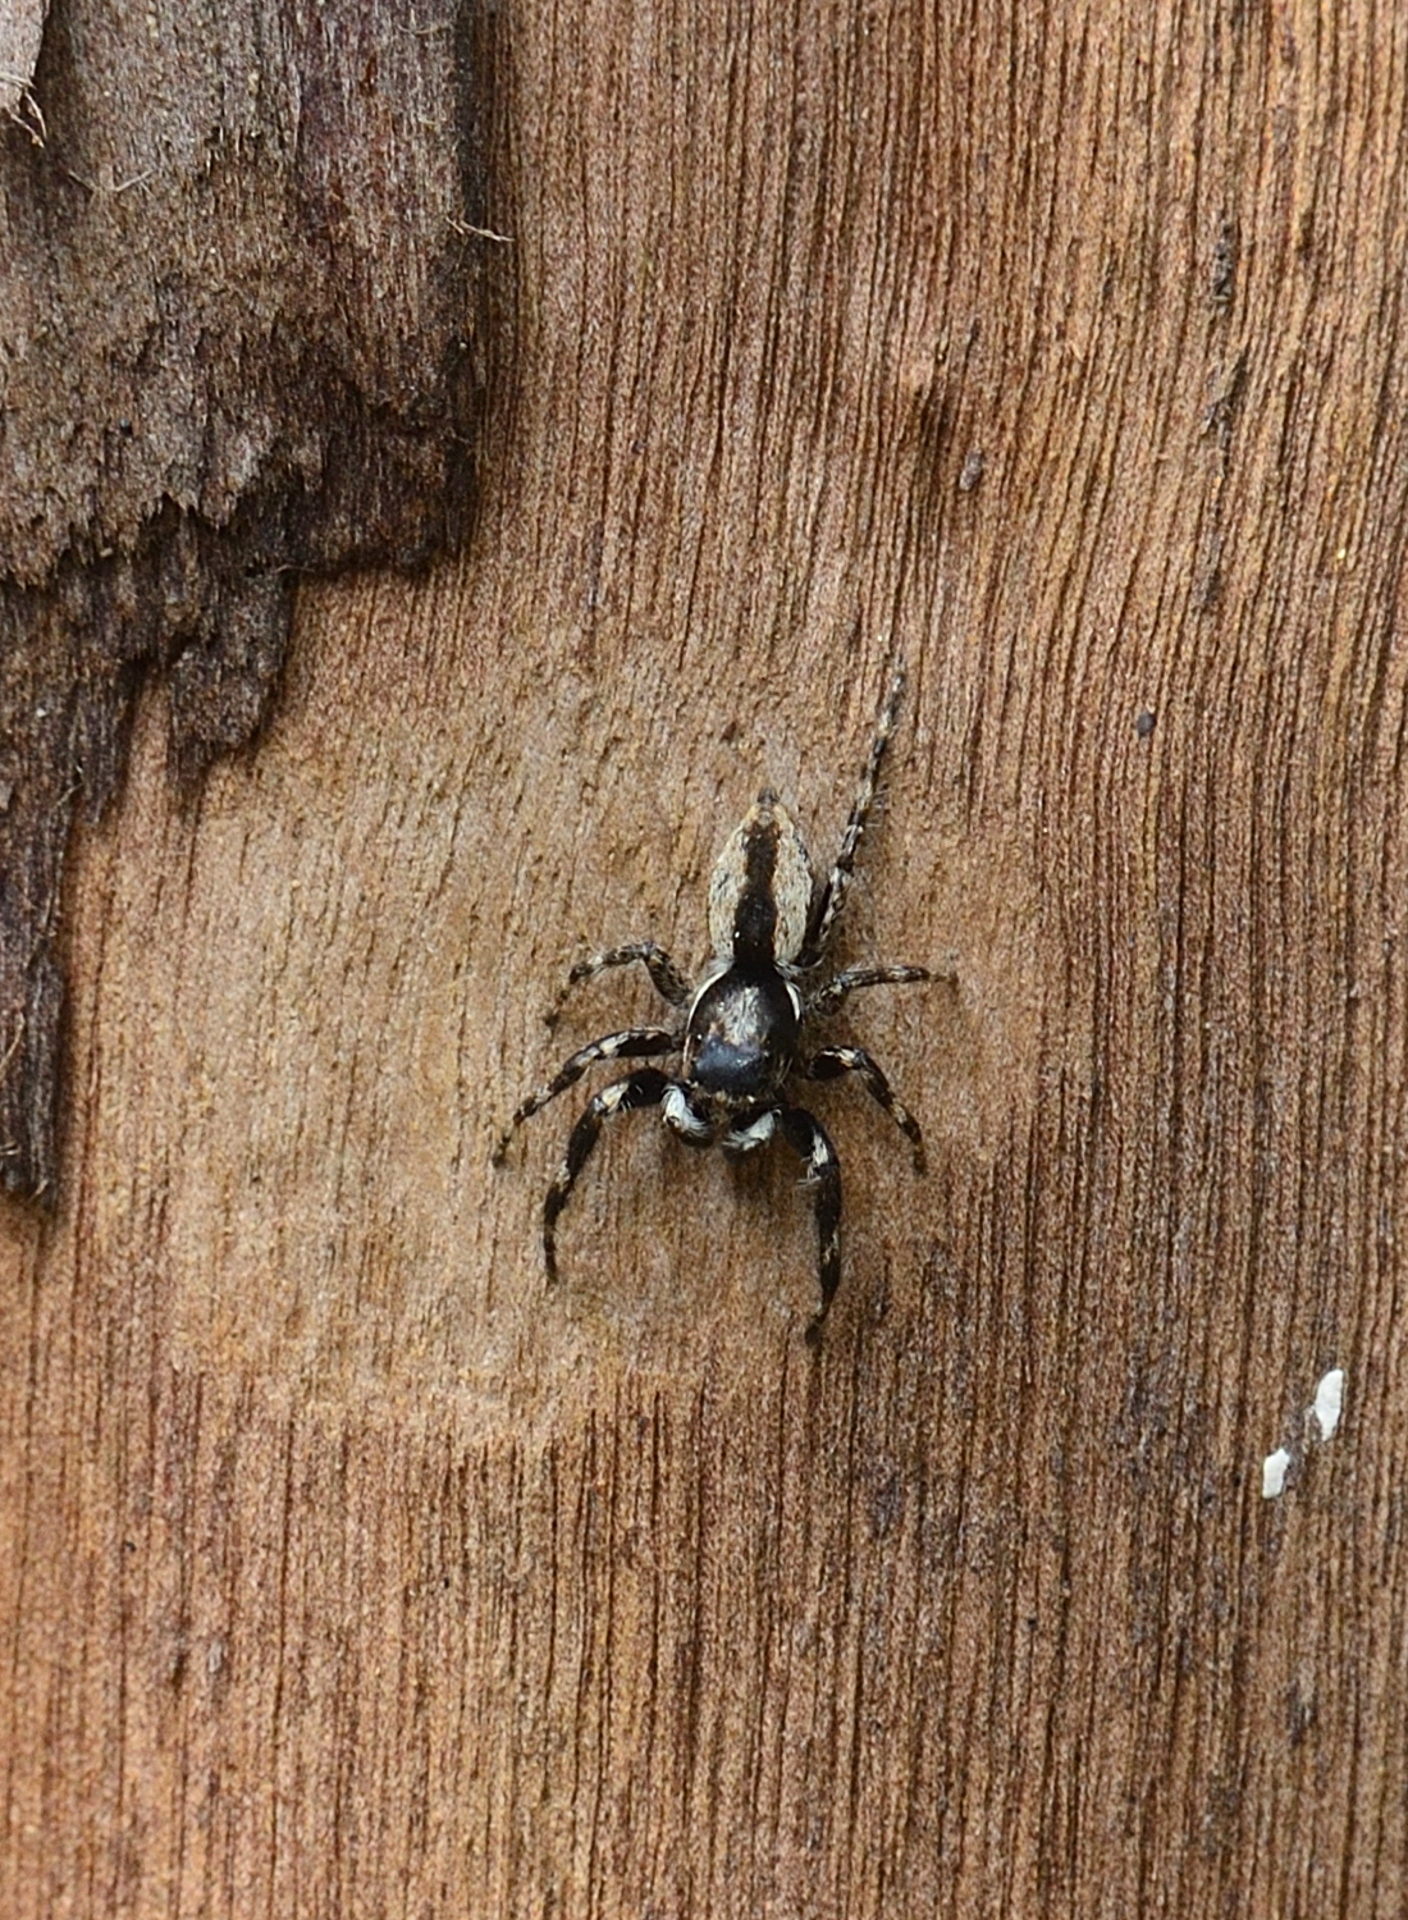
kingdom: Animalia
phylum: Arthropoda
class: Arachnida
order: Araneae
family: Salticidae
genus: Menemerus
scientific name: Menemerus bivittatus
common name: Gray wall jumper
